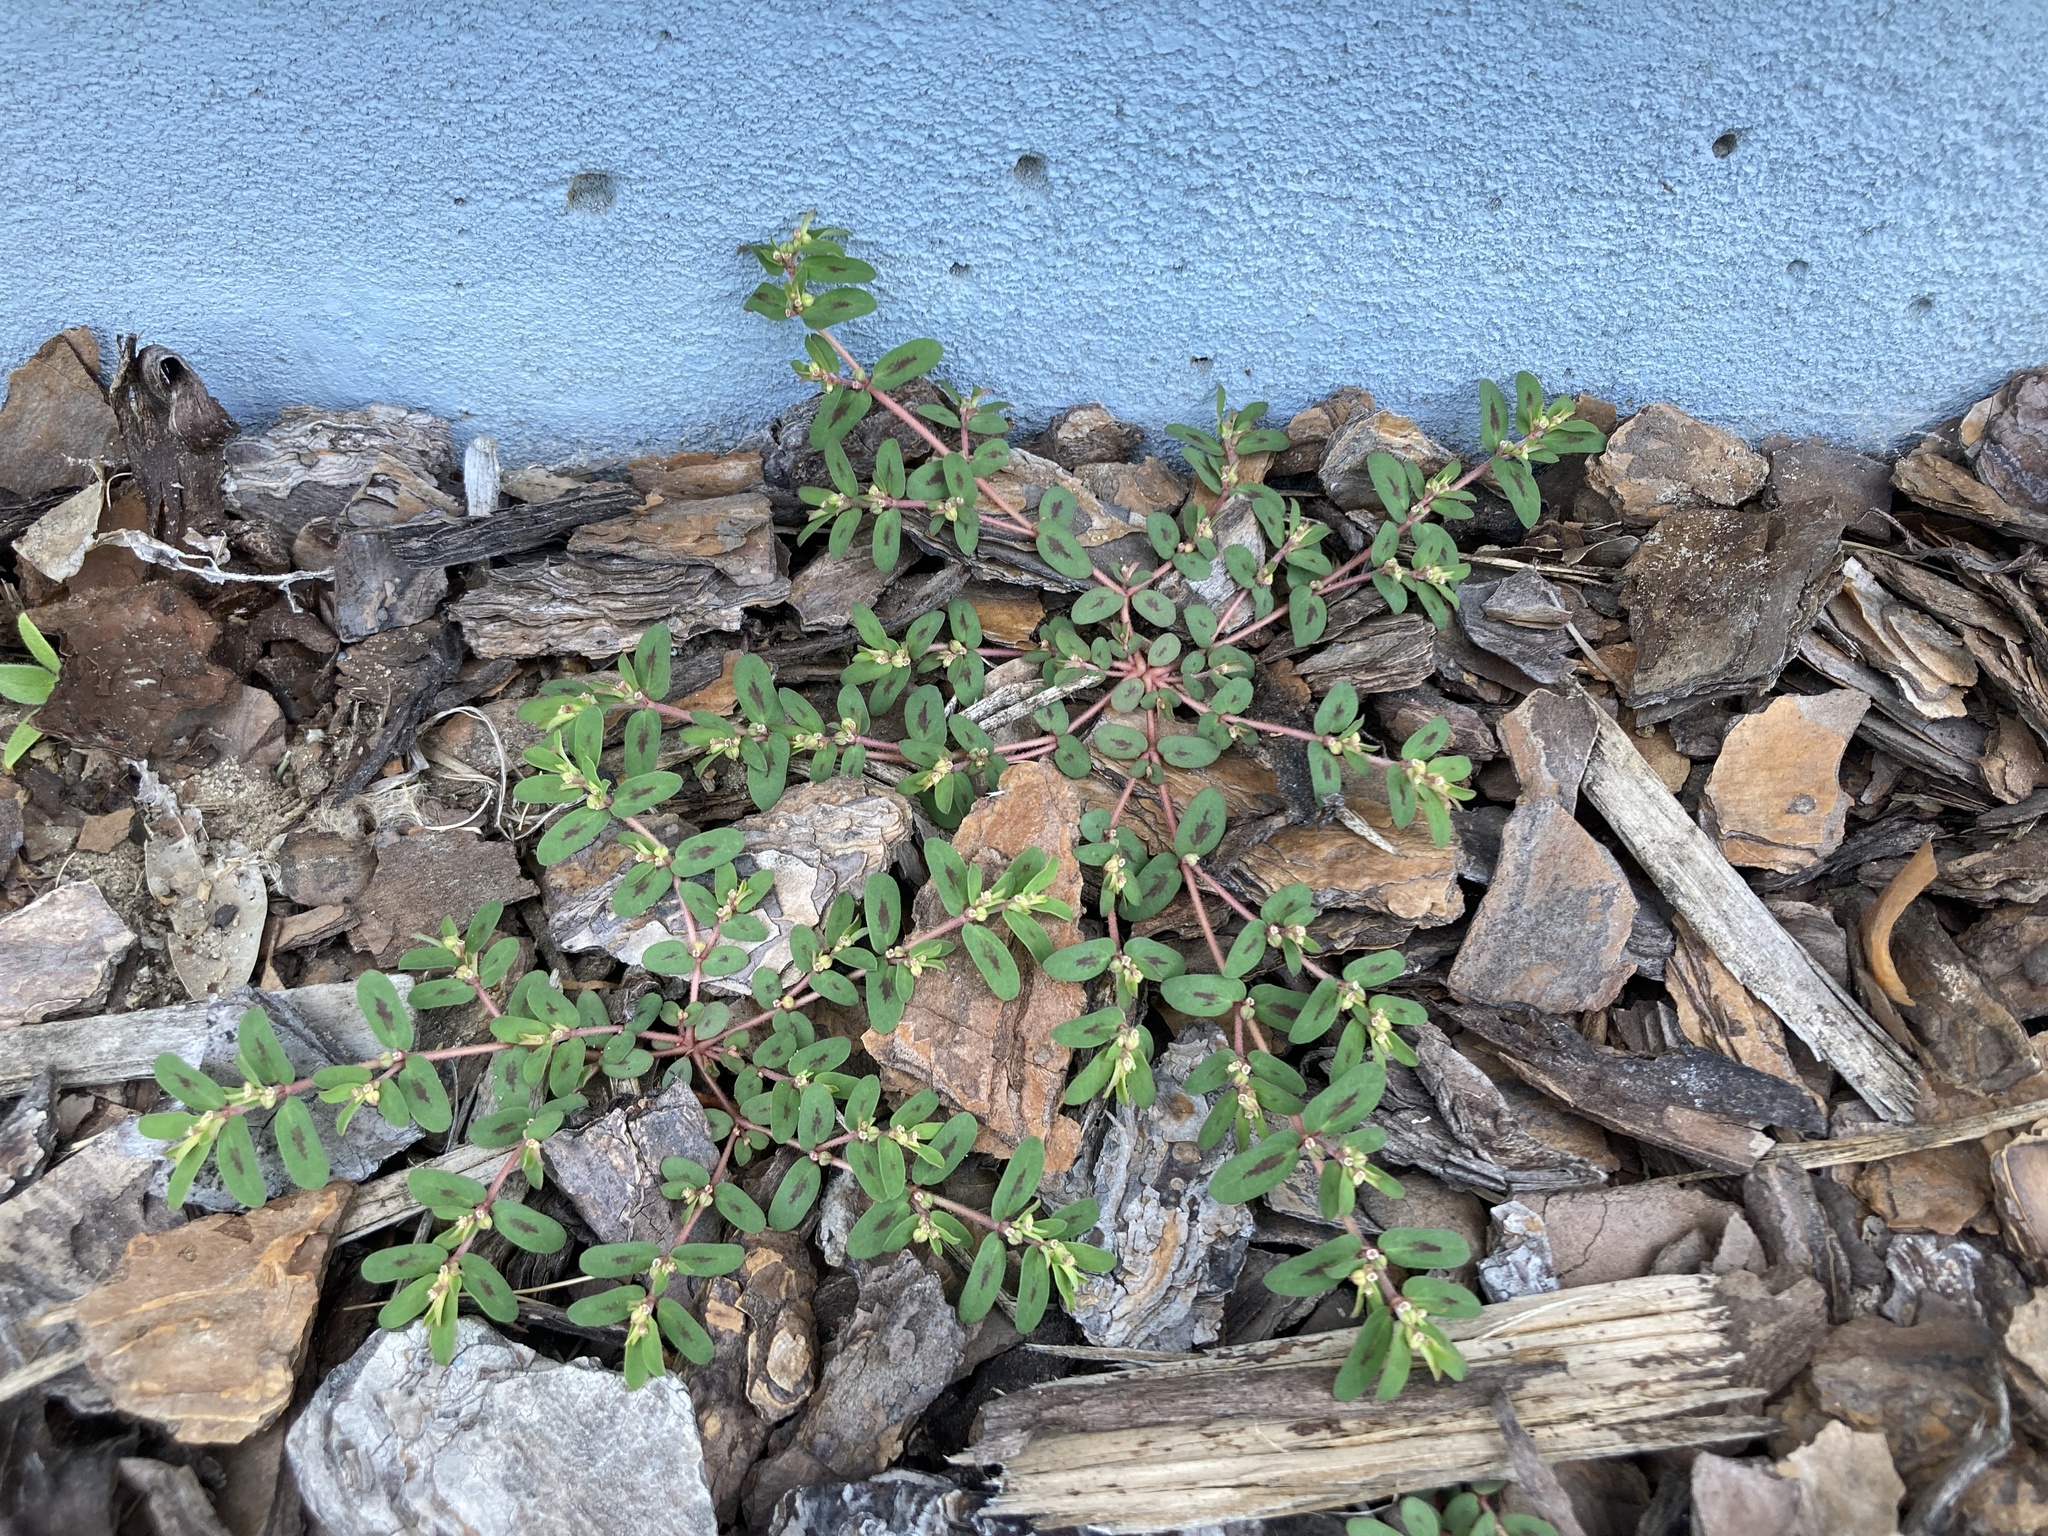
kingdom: Plantae
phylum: Tracheophyta
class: Magnoliopsida
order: Malpighiales
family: Euphorbiaceae
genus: Euphorbia
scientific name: Euphorbia maculata
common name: Spotted spurge
